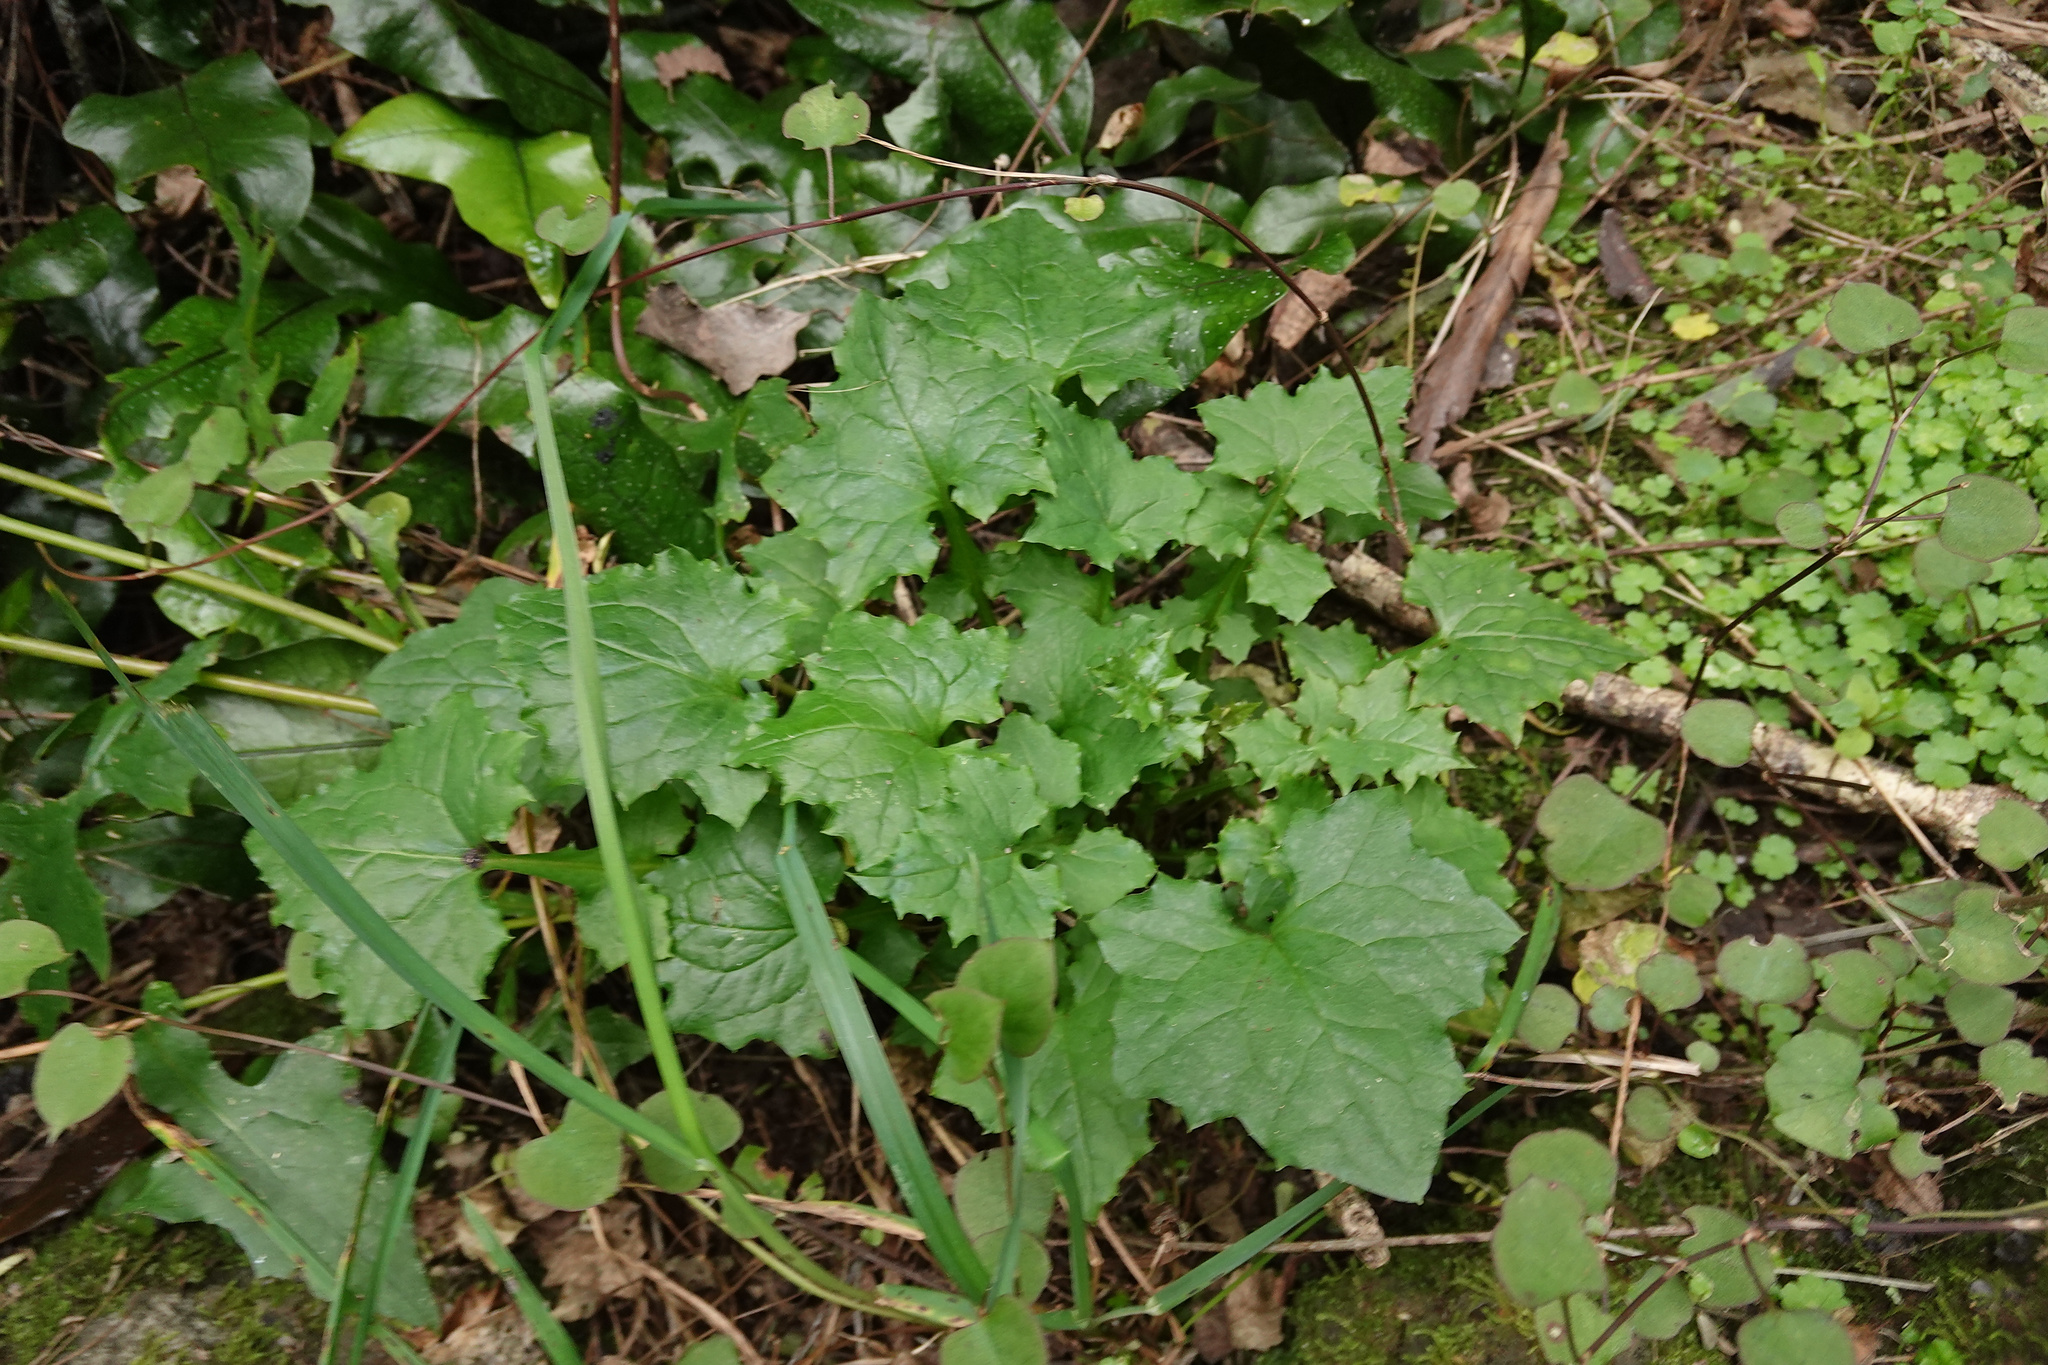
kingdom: Plantae
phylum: Tracheophyta
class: Magnoliopsida
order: Asterales
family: Asteraceae
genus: Mycelis
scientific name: Mycelis muralis
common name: Wall lettuce
